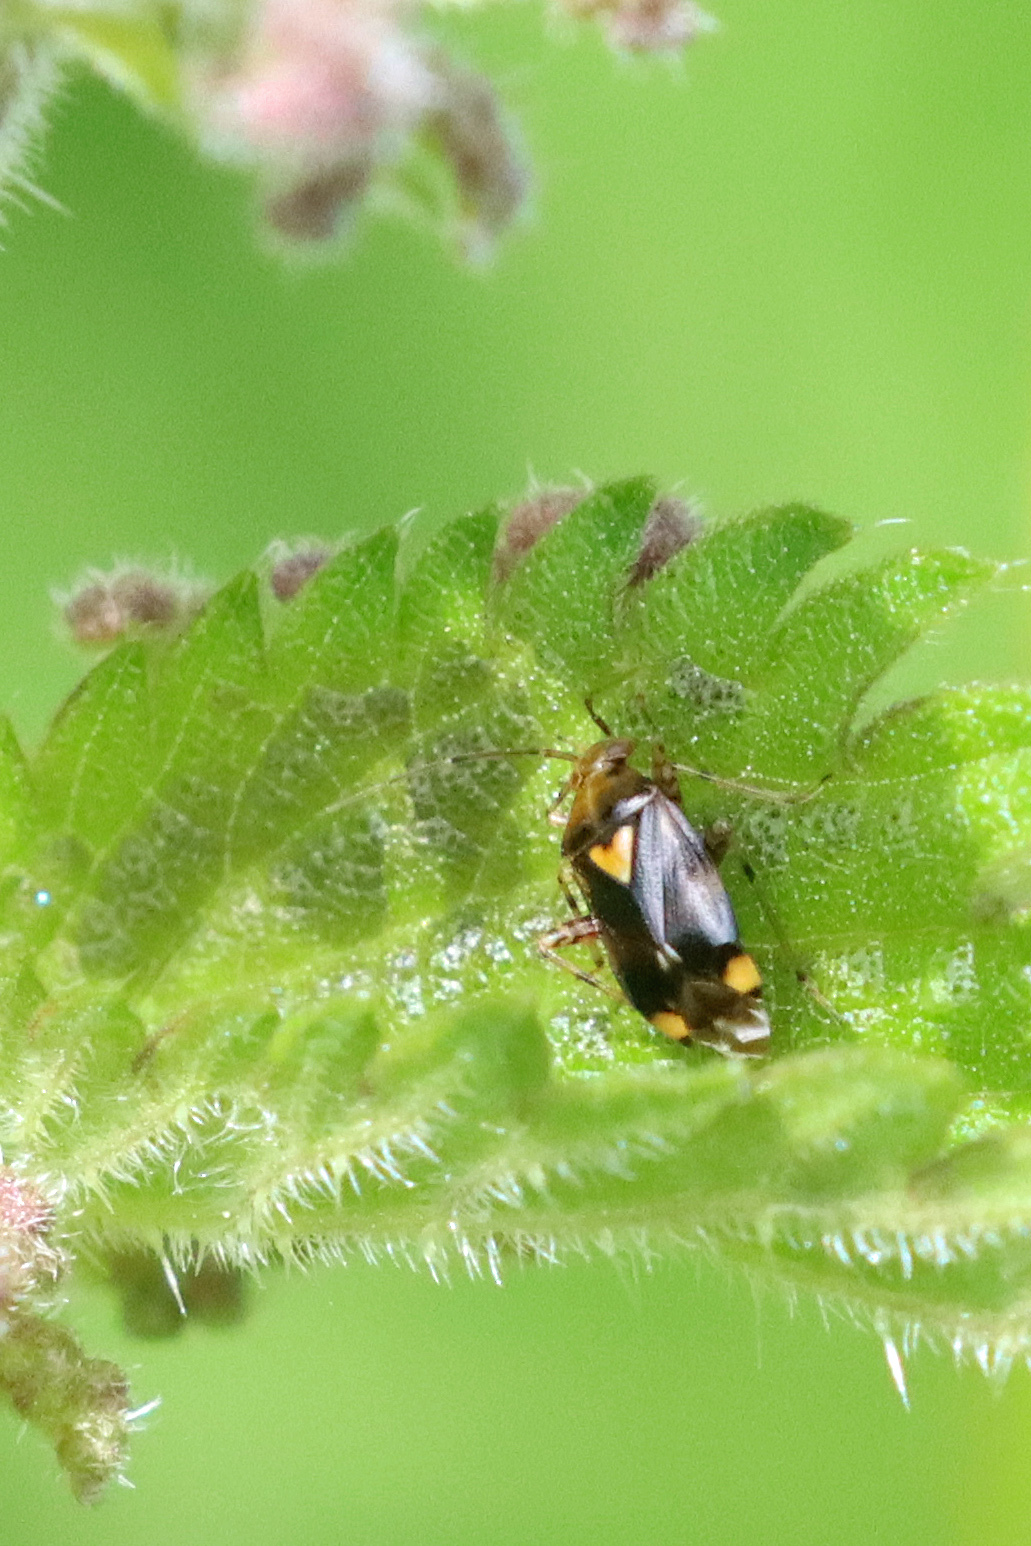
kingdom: Animalia
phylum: Arthropoda
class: Insecta
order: Hemiptera
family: Miridae
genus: Liocoris
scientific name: Liocoris tripustulatus
